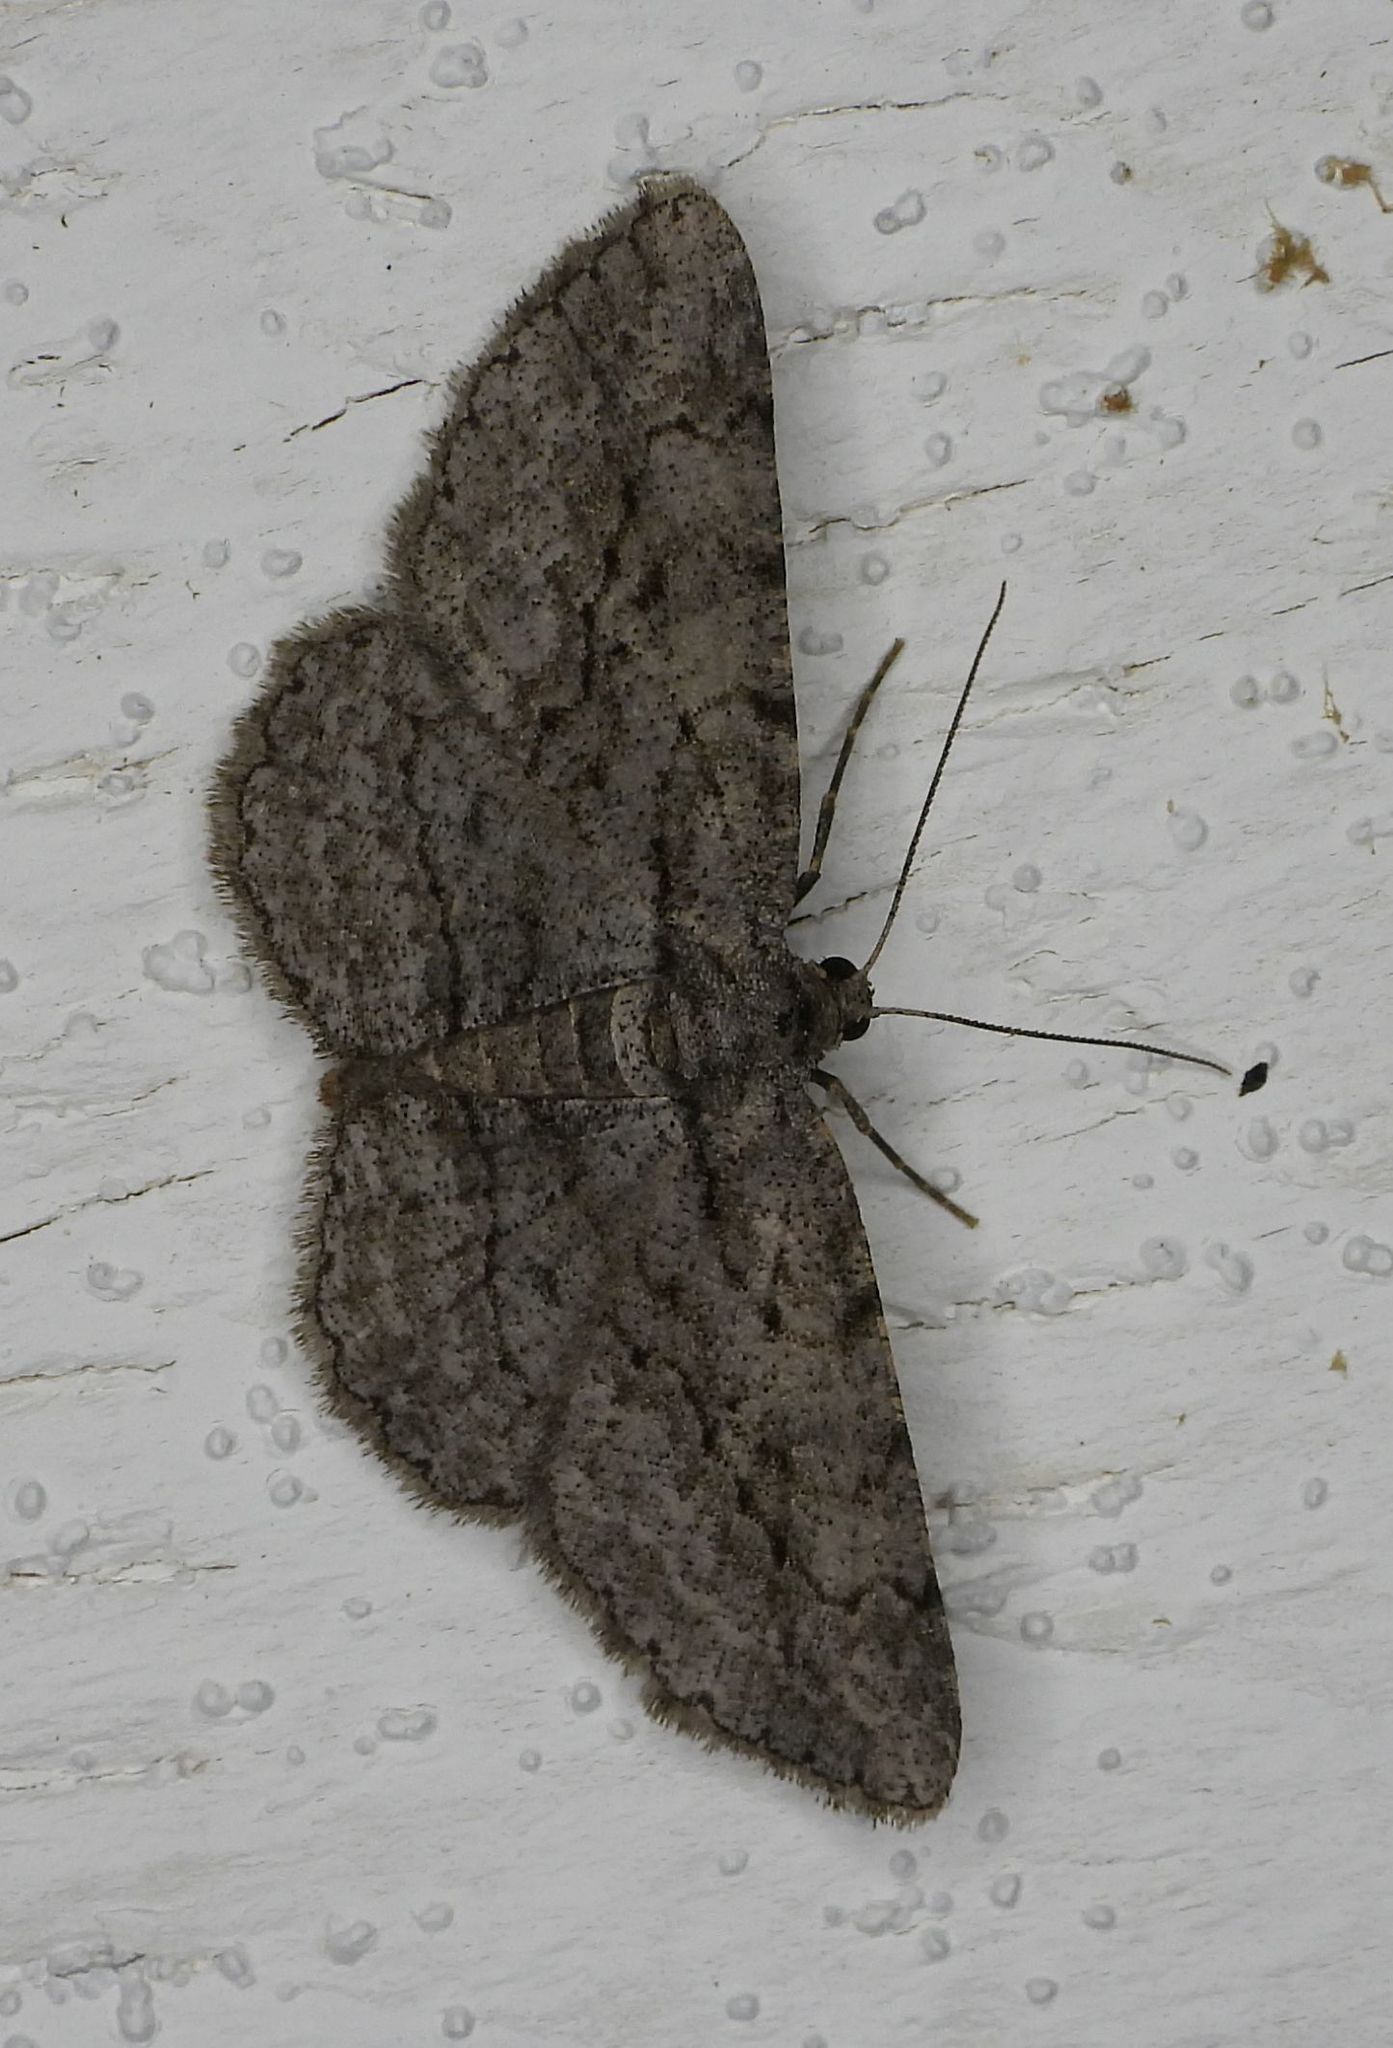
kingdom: Animalia
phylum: Arthropoda
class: Insecta
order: Lepidoptera
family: Geometridae
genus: Anavitrinella
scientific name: Anavitrinella pampinaria
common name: Common gray
